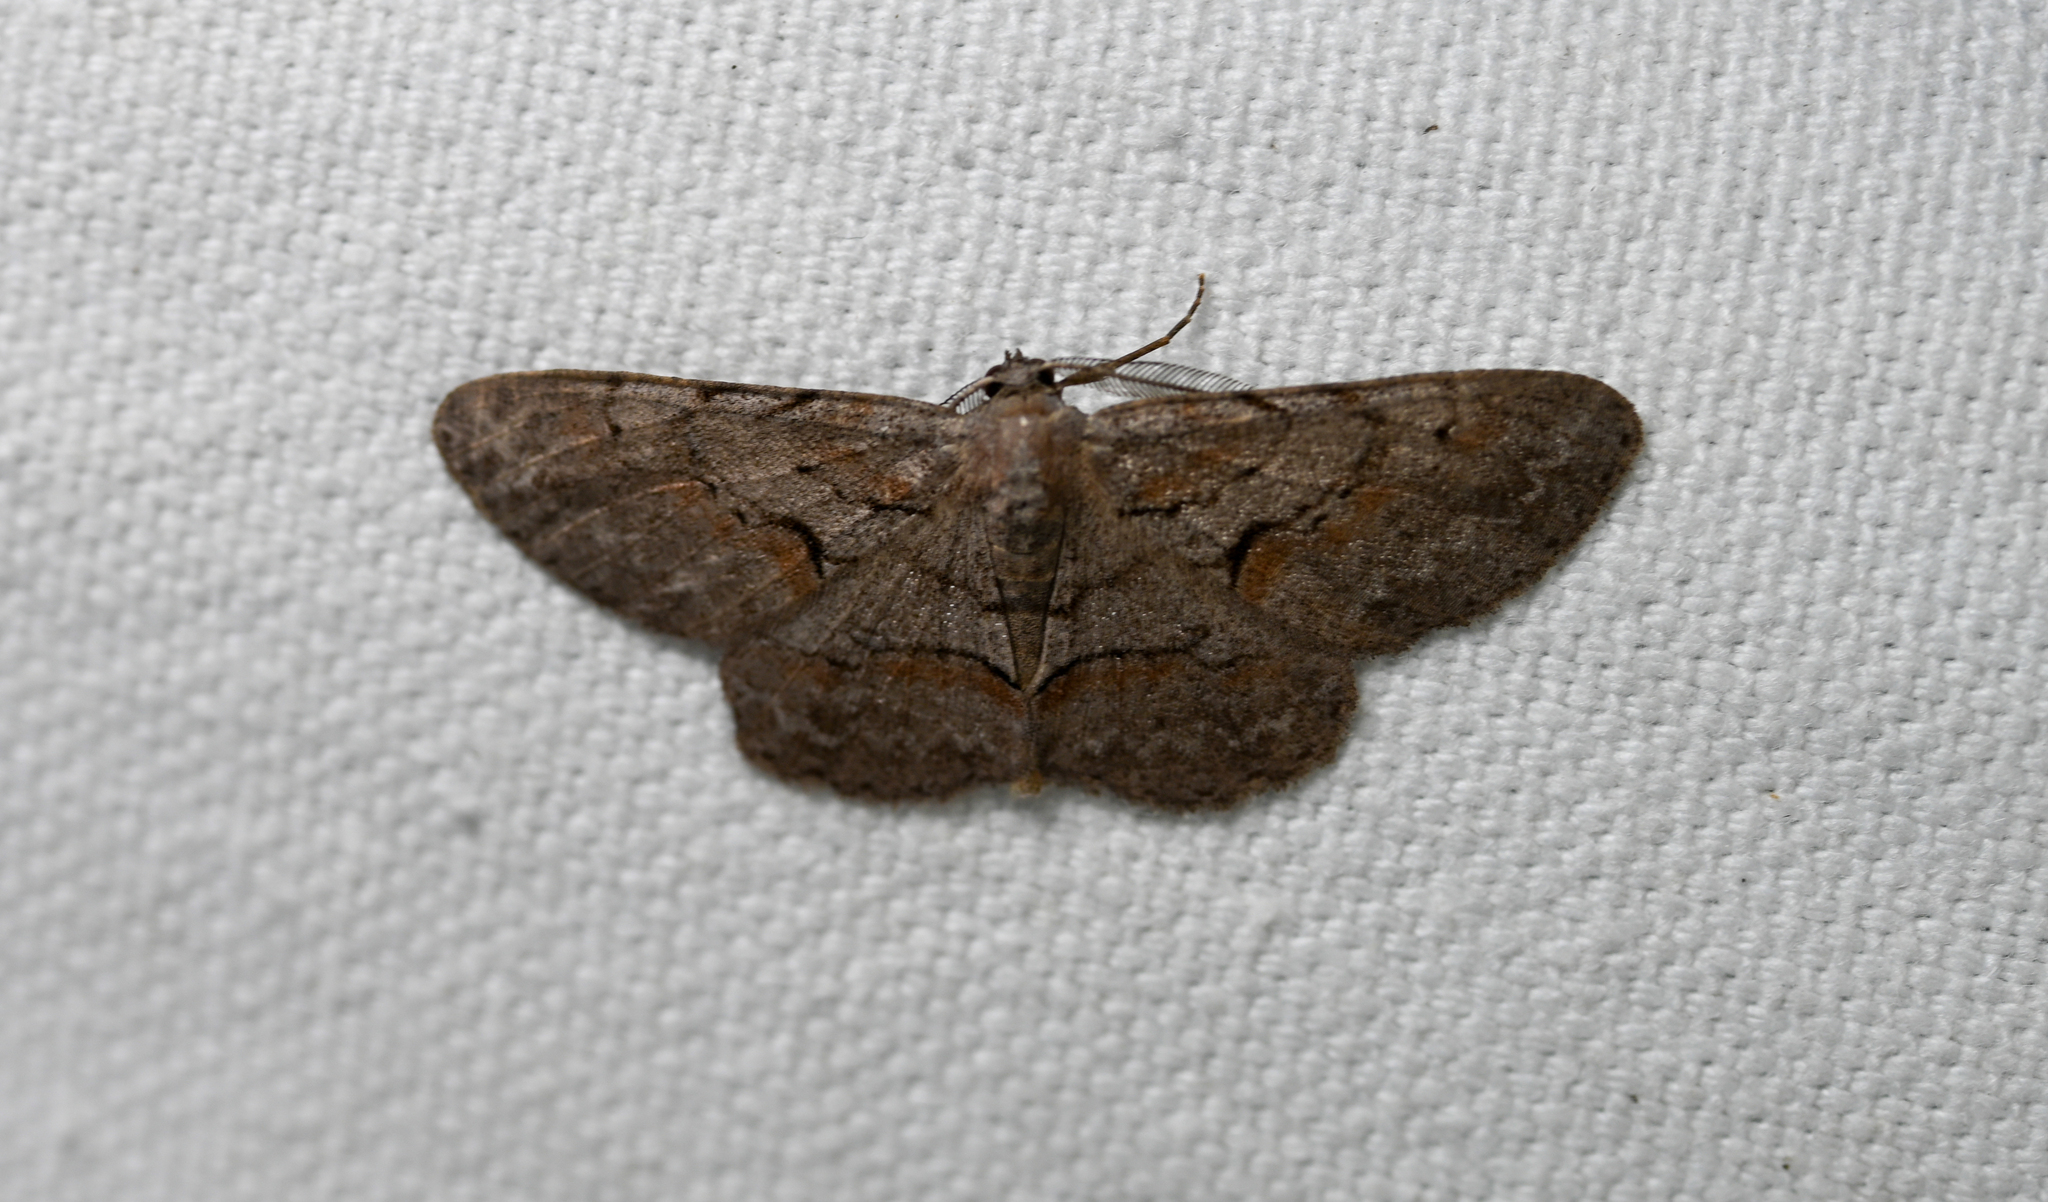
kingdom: Animalia
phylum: Arthropoda
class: Insecta
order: Lepidoptera
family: Geometridae
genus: Iridopsis
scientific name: Iridopsis vellivolata
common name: Large purplish gray
